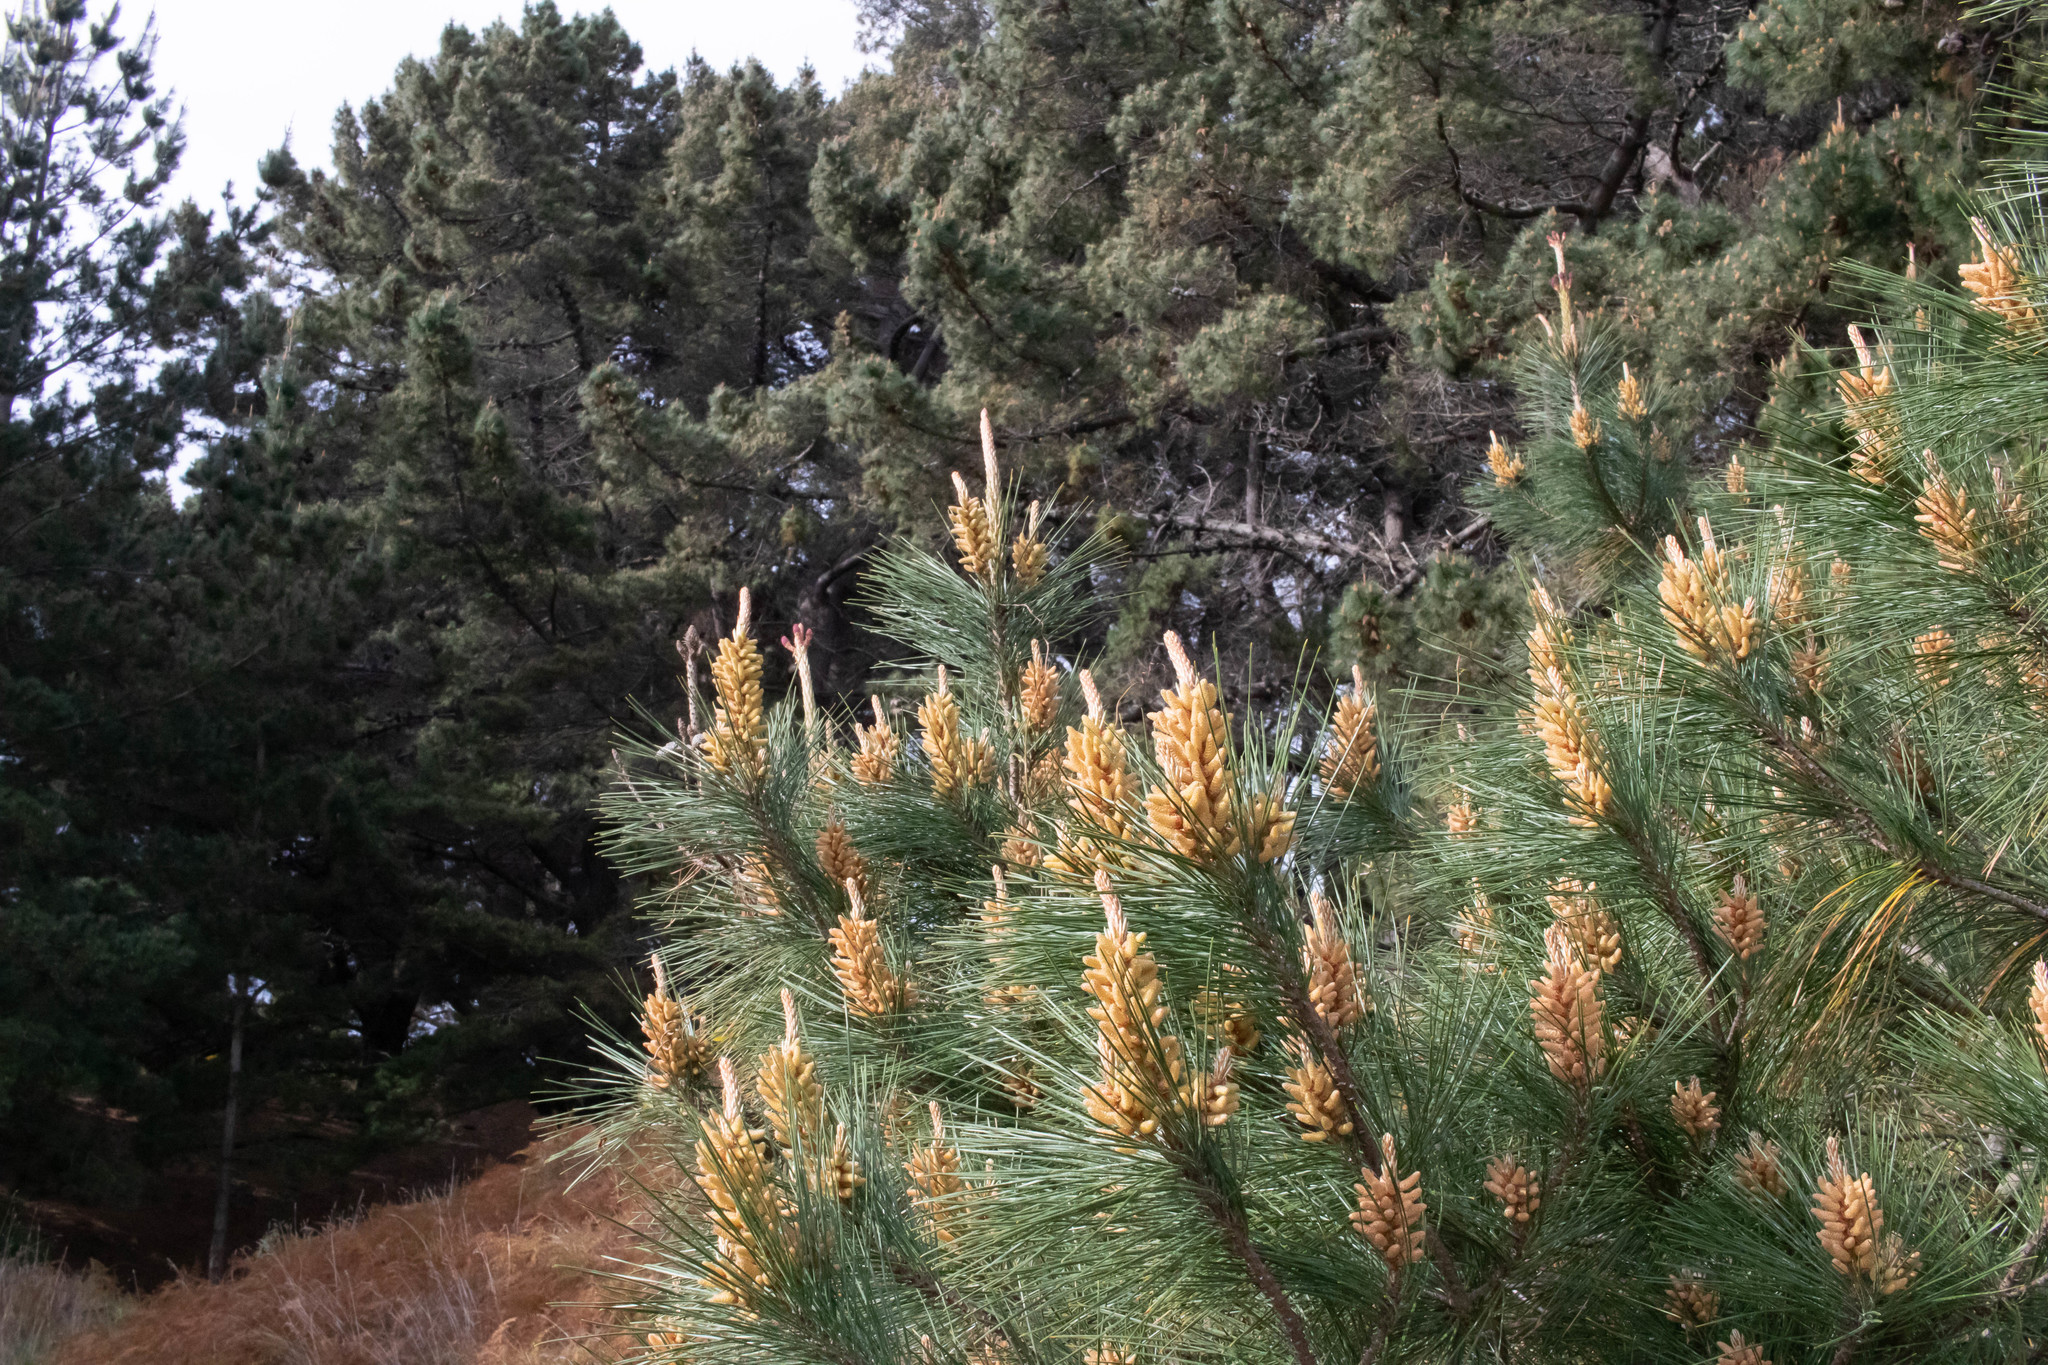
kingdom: Plantae
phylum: Tracheophyta
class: Pinopsida
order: Pinales
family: Pinaceae
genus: Pinus
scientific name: Pinus radiata
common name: Monterey pine
